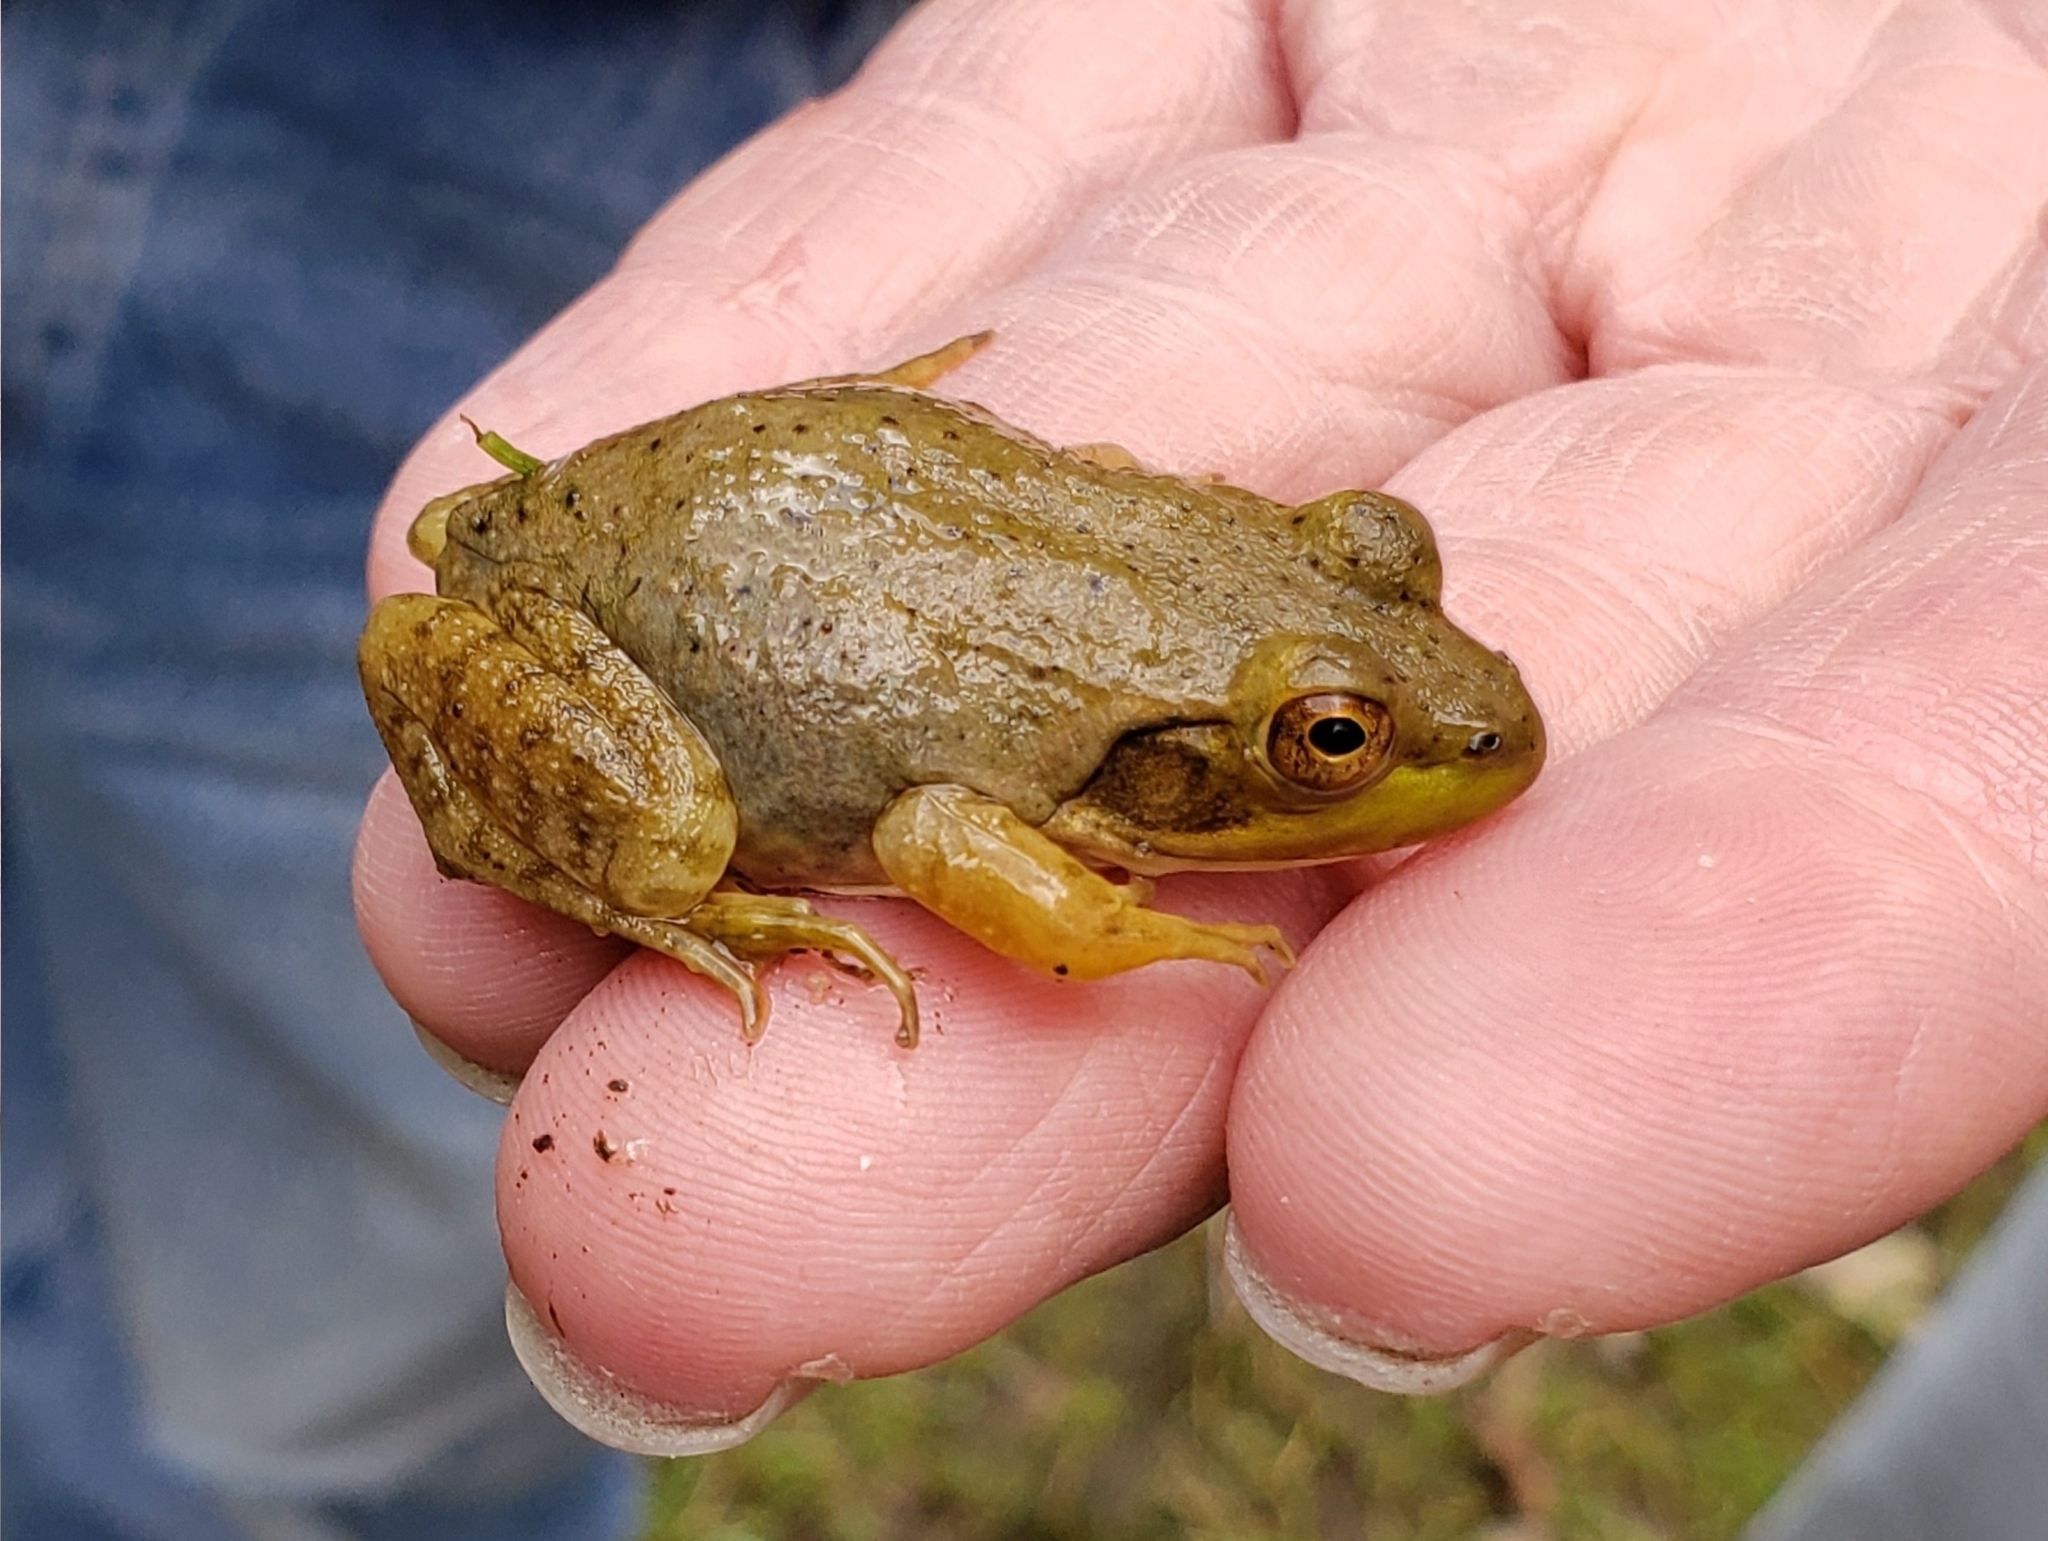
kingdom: Animalia
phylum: Chordata
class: Amphibia
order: Anura
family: Ranidae
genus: Lithobates
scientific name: Lithobates catesbeianus
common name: American bullfrog
